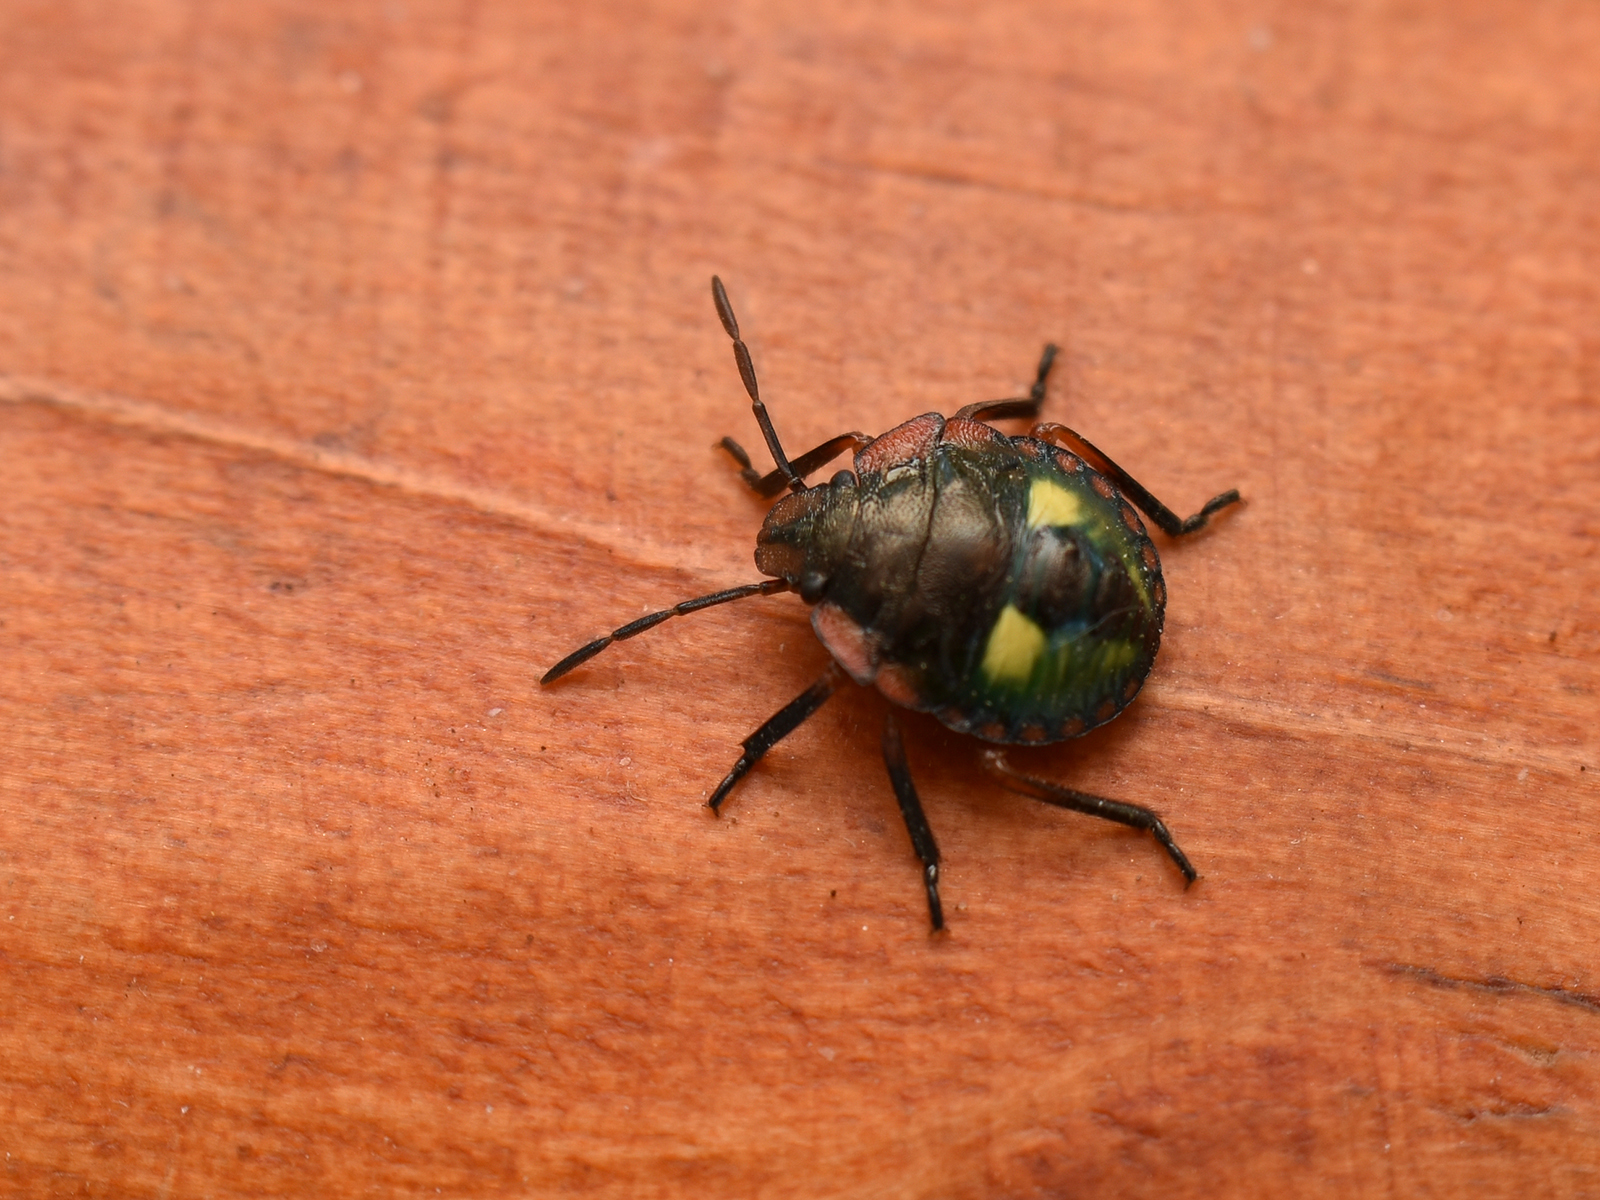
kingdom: Animalia
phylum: Arthropoda
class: Insecta
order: Hemiptera
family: Pentatomidae
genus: Chinavia
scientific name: Chinavia
